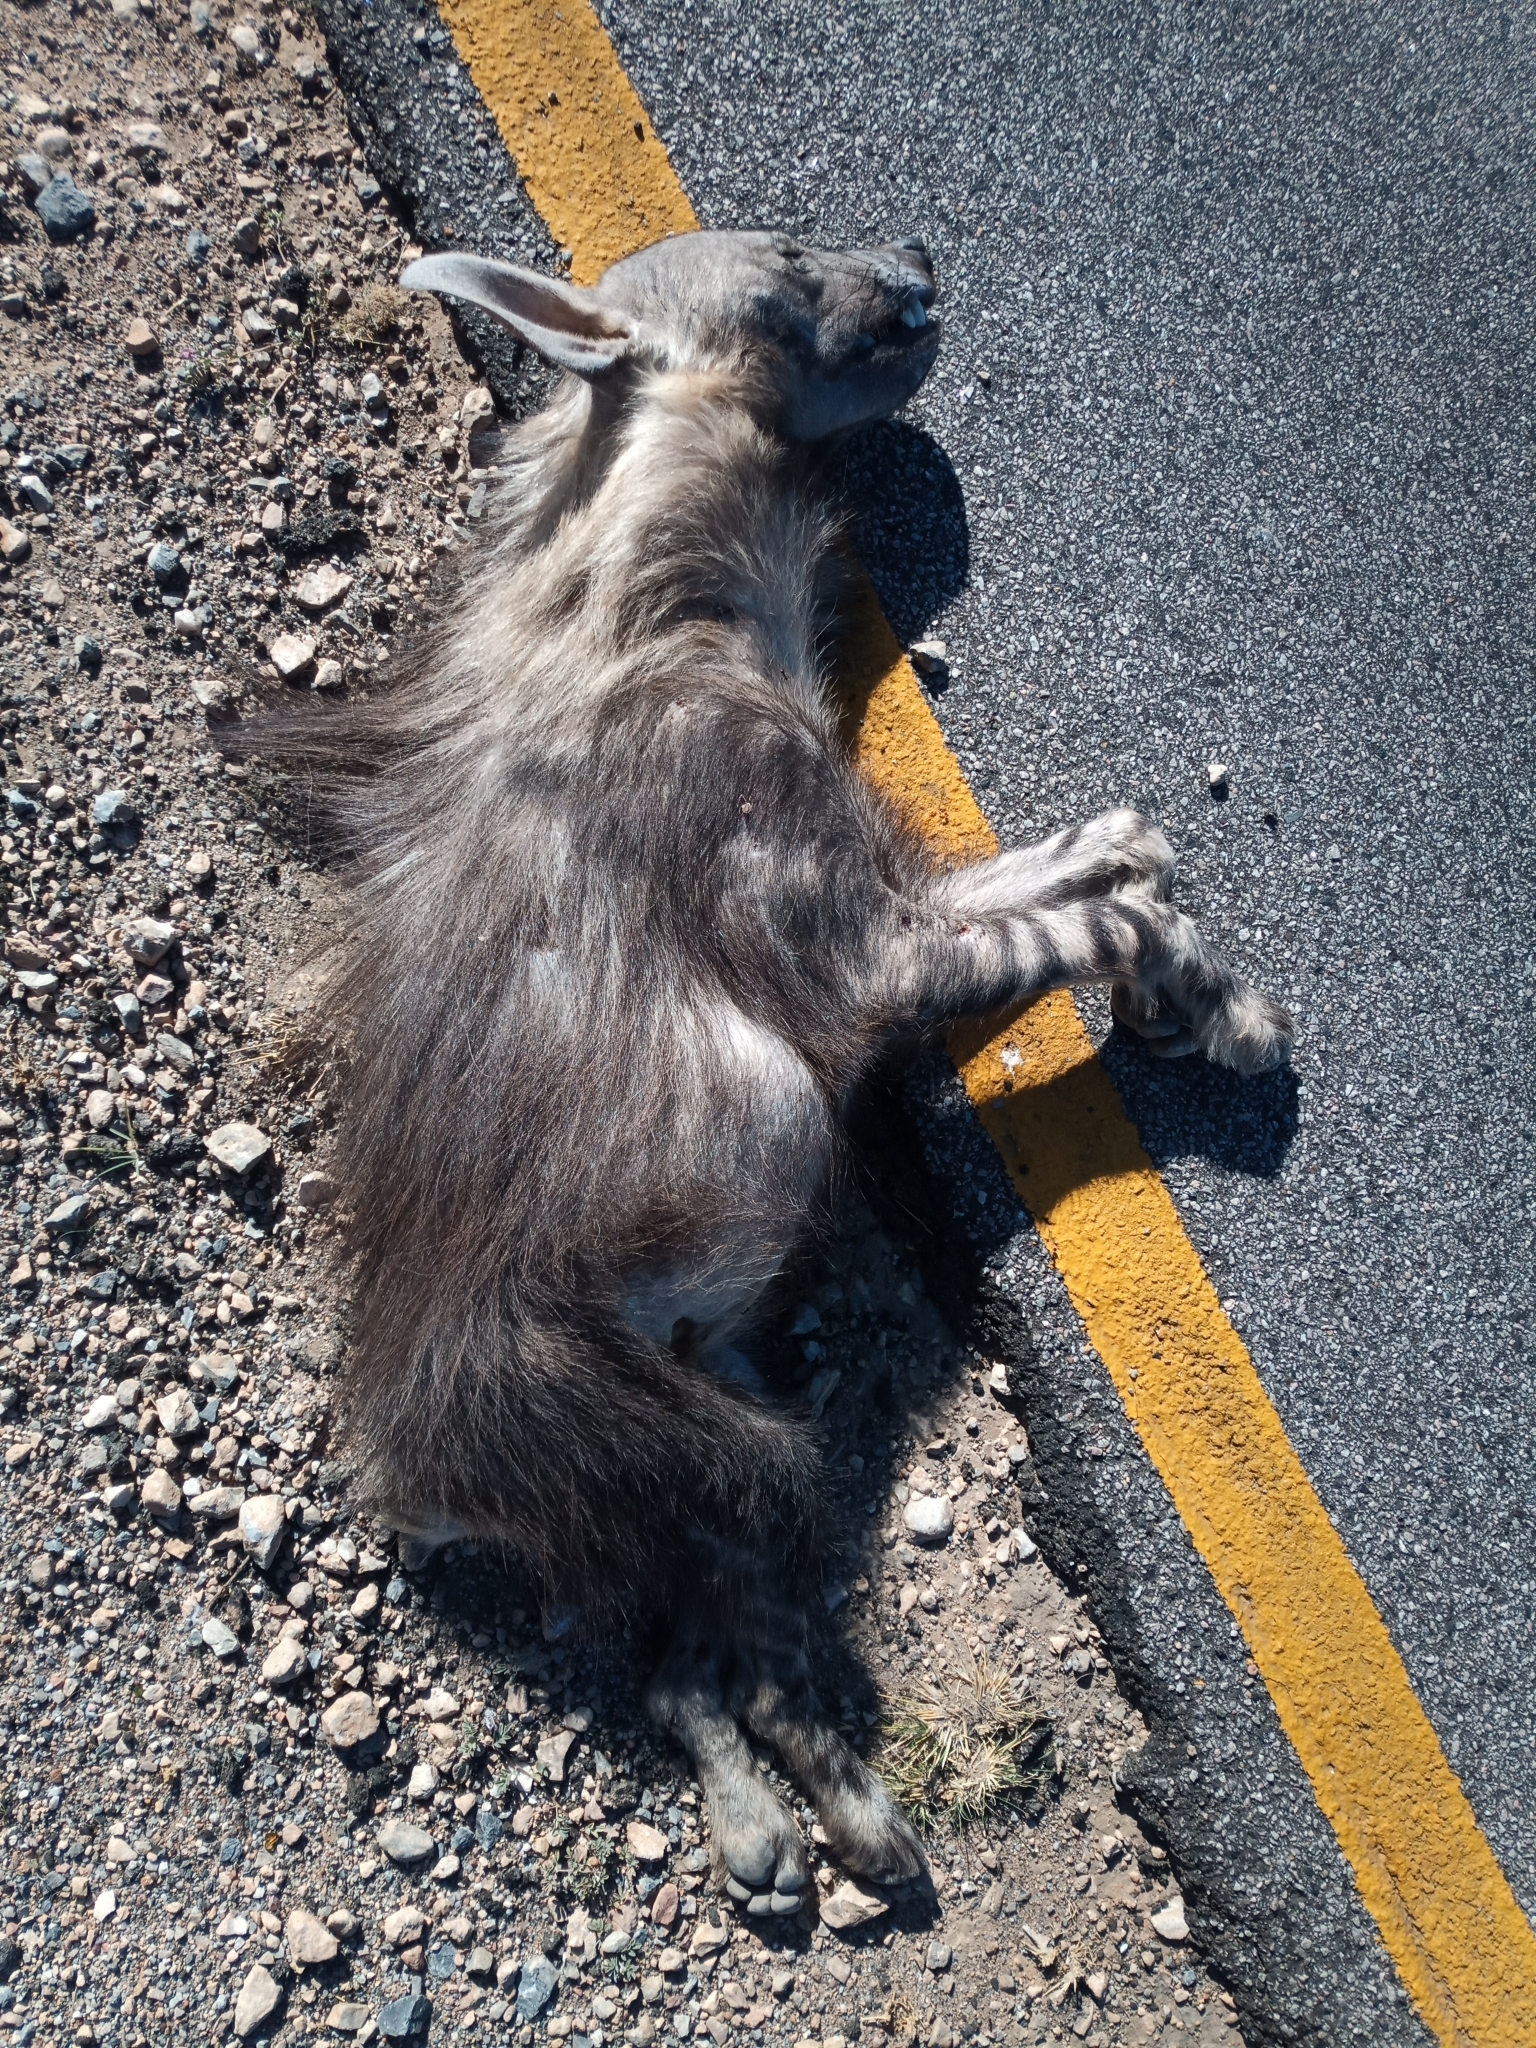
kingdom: Animalia
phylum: Chordata
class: Mammalia
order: Carnivora
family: Hyaenidae
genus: Hyaena
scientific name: Hyaena brunnea
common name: Brown hyena
